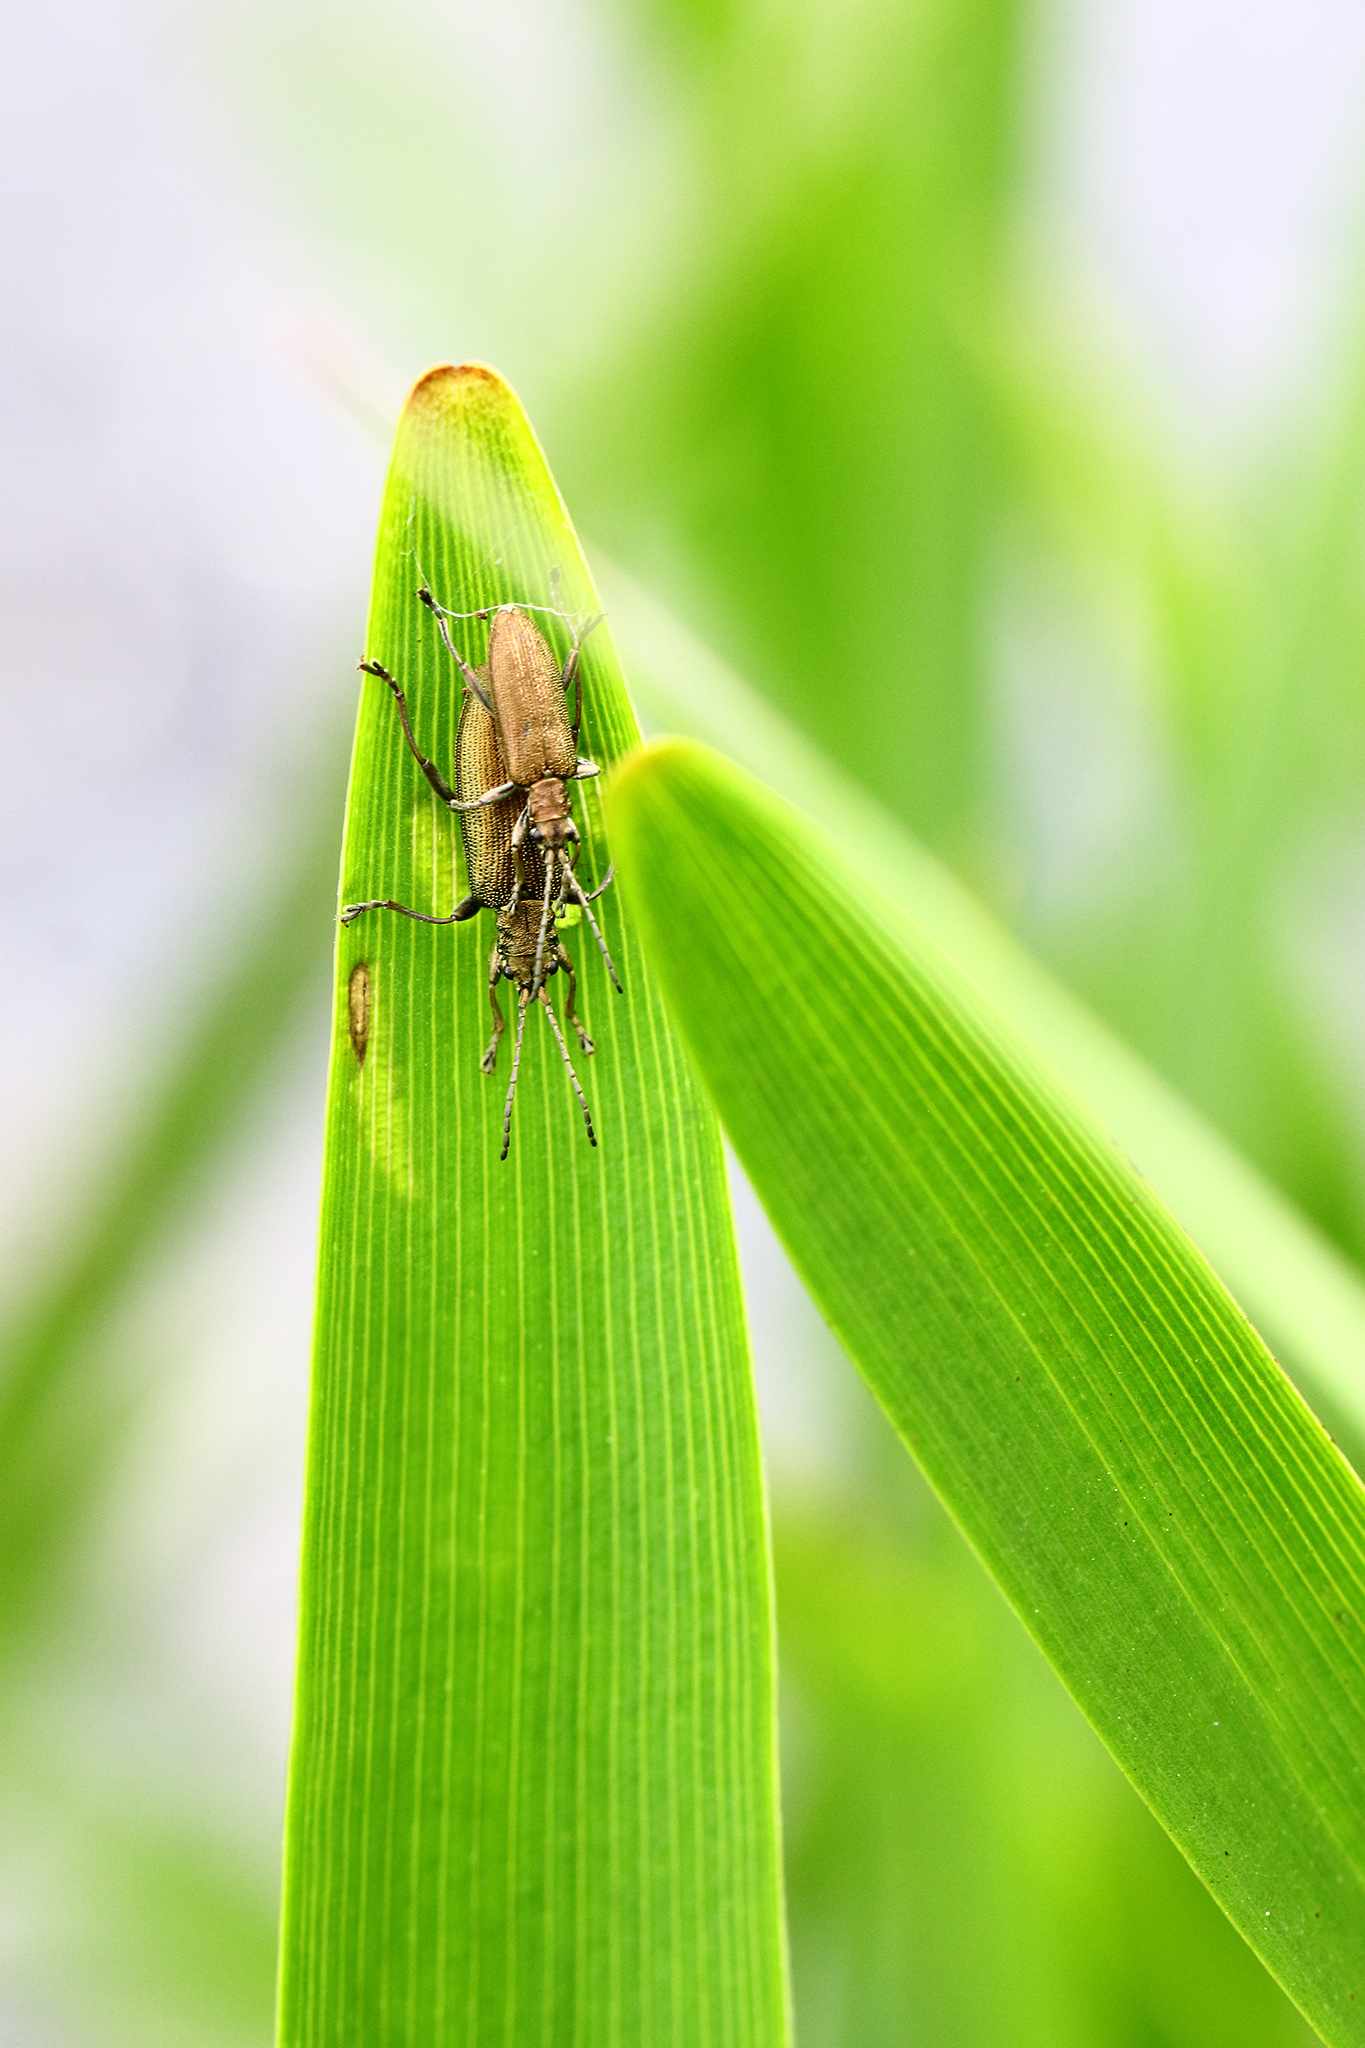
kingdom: Animalia
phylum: Arthropoda
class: Insecta
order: Coleoptera
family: Chrysomelidae
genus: Donacia
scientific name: Donacia simplex
